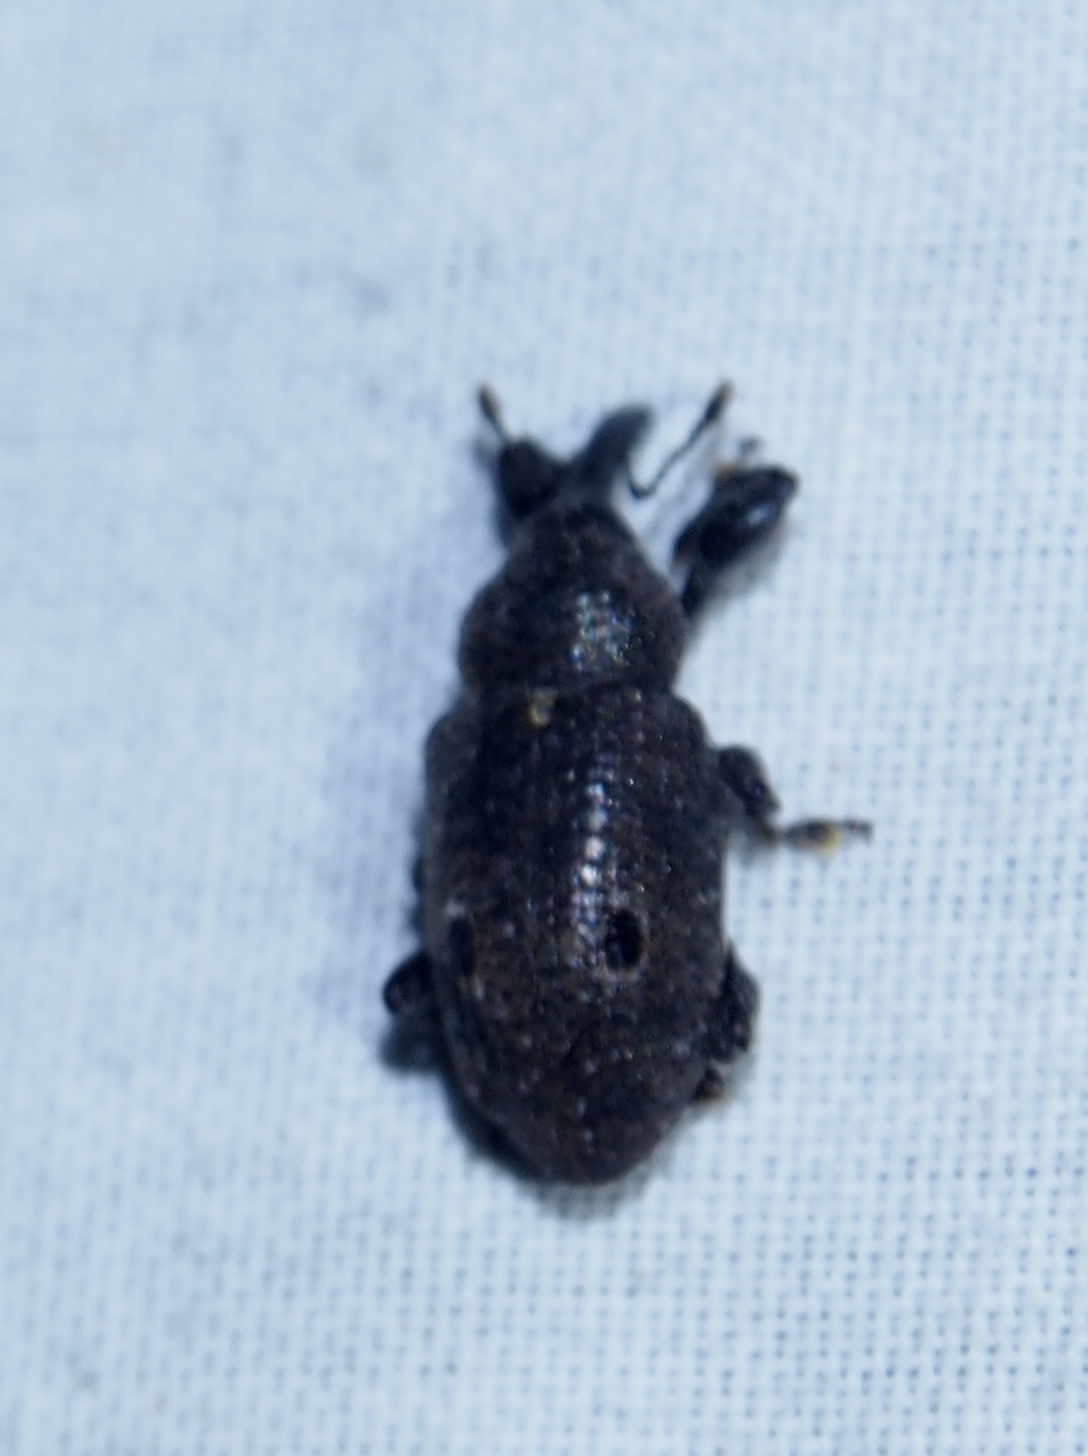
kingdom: Animalia
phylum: Arthropoda
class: Insecta
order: Coleoptera
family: Curculionidae
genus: Heilus
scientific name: Heilus bioculatus
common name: Gumbo limbo weevil
